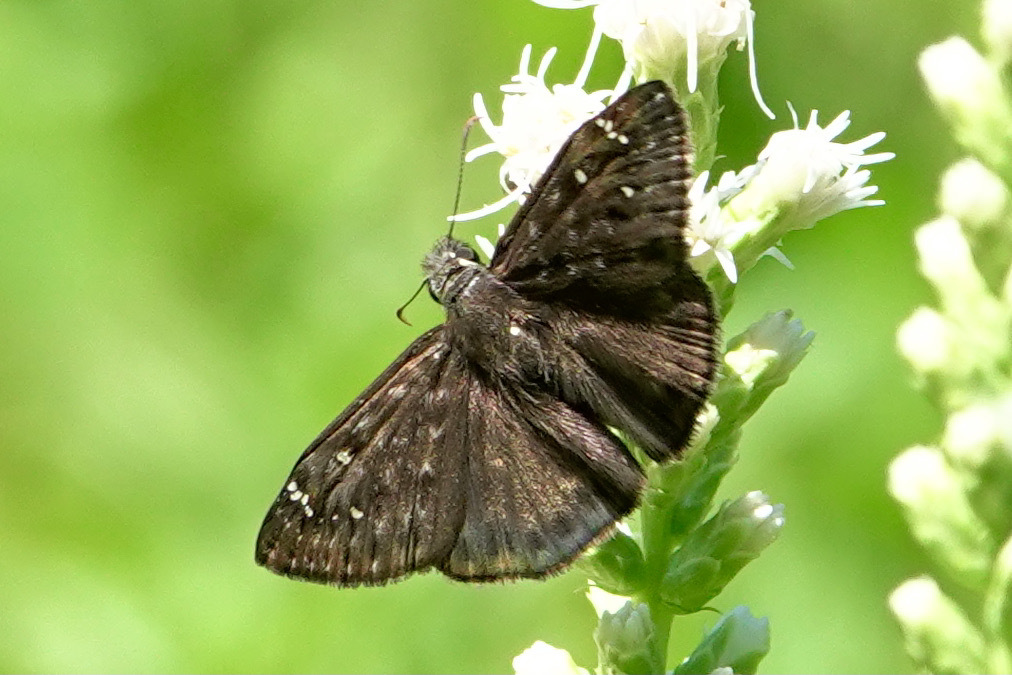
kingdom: Animalia
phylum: Arthropoda
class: Insecta
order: Lepidoptera
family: Hesperiidae
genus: Erynnis
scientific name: Erynnis horatius
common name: Horace's duskywing
